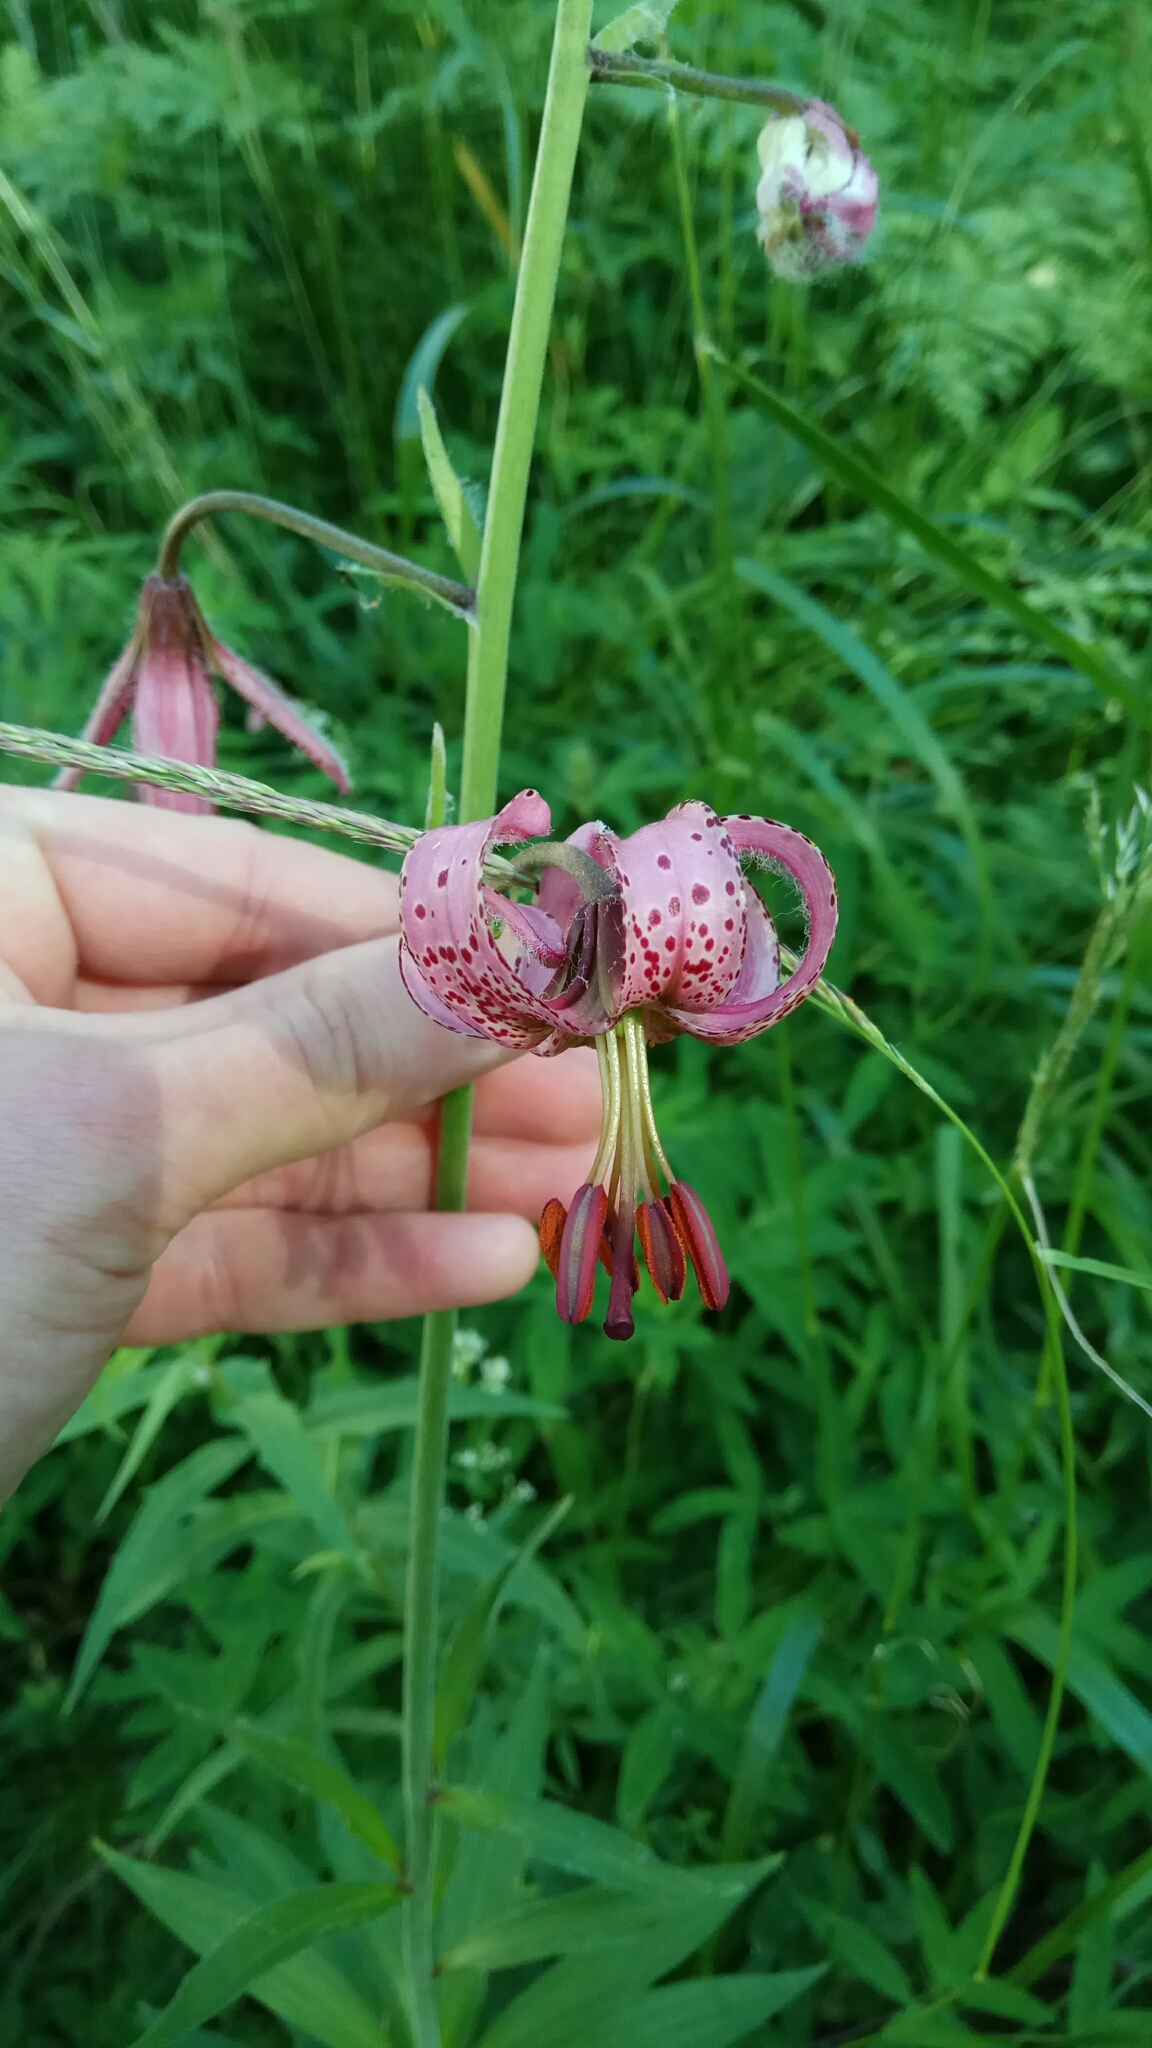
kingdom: Plantae
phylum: Tracheophyta
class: Liliopsida
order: Liliales
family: Liliaceae
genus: Lilium
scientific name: Lilium martagon
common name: Martagon lily
